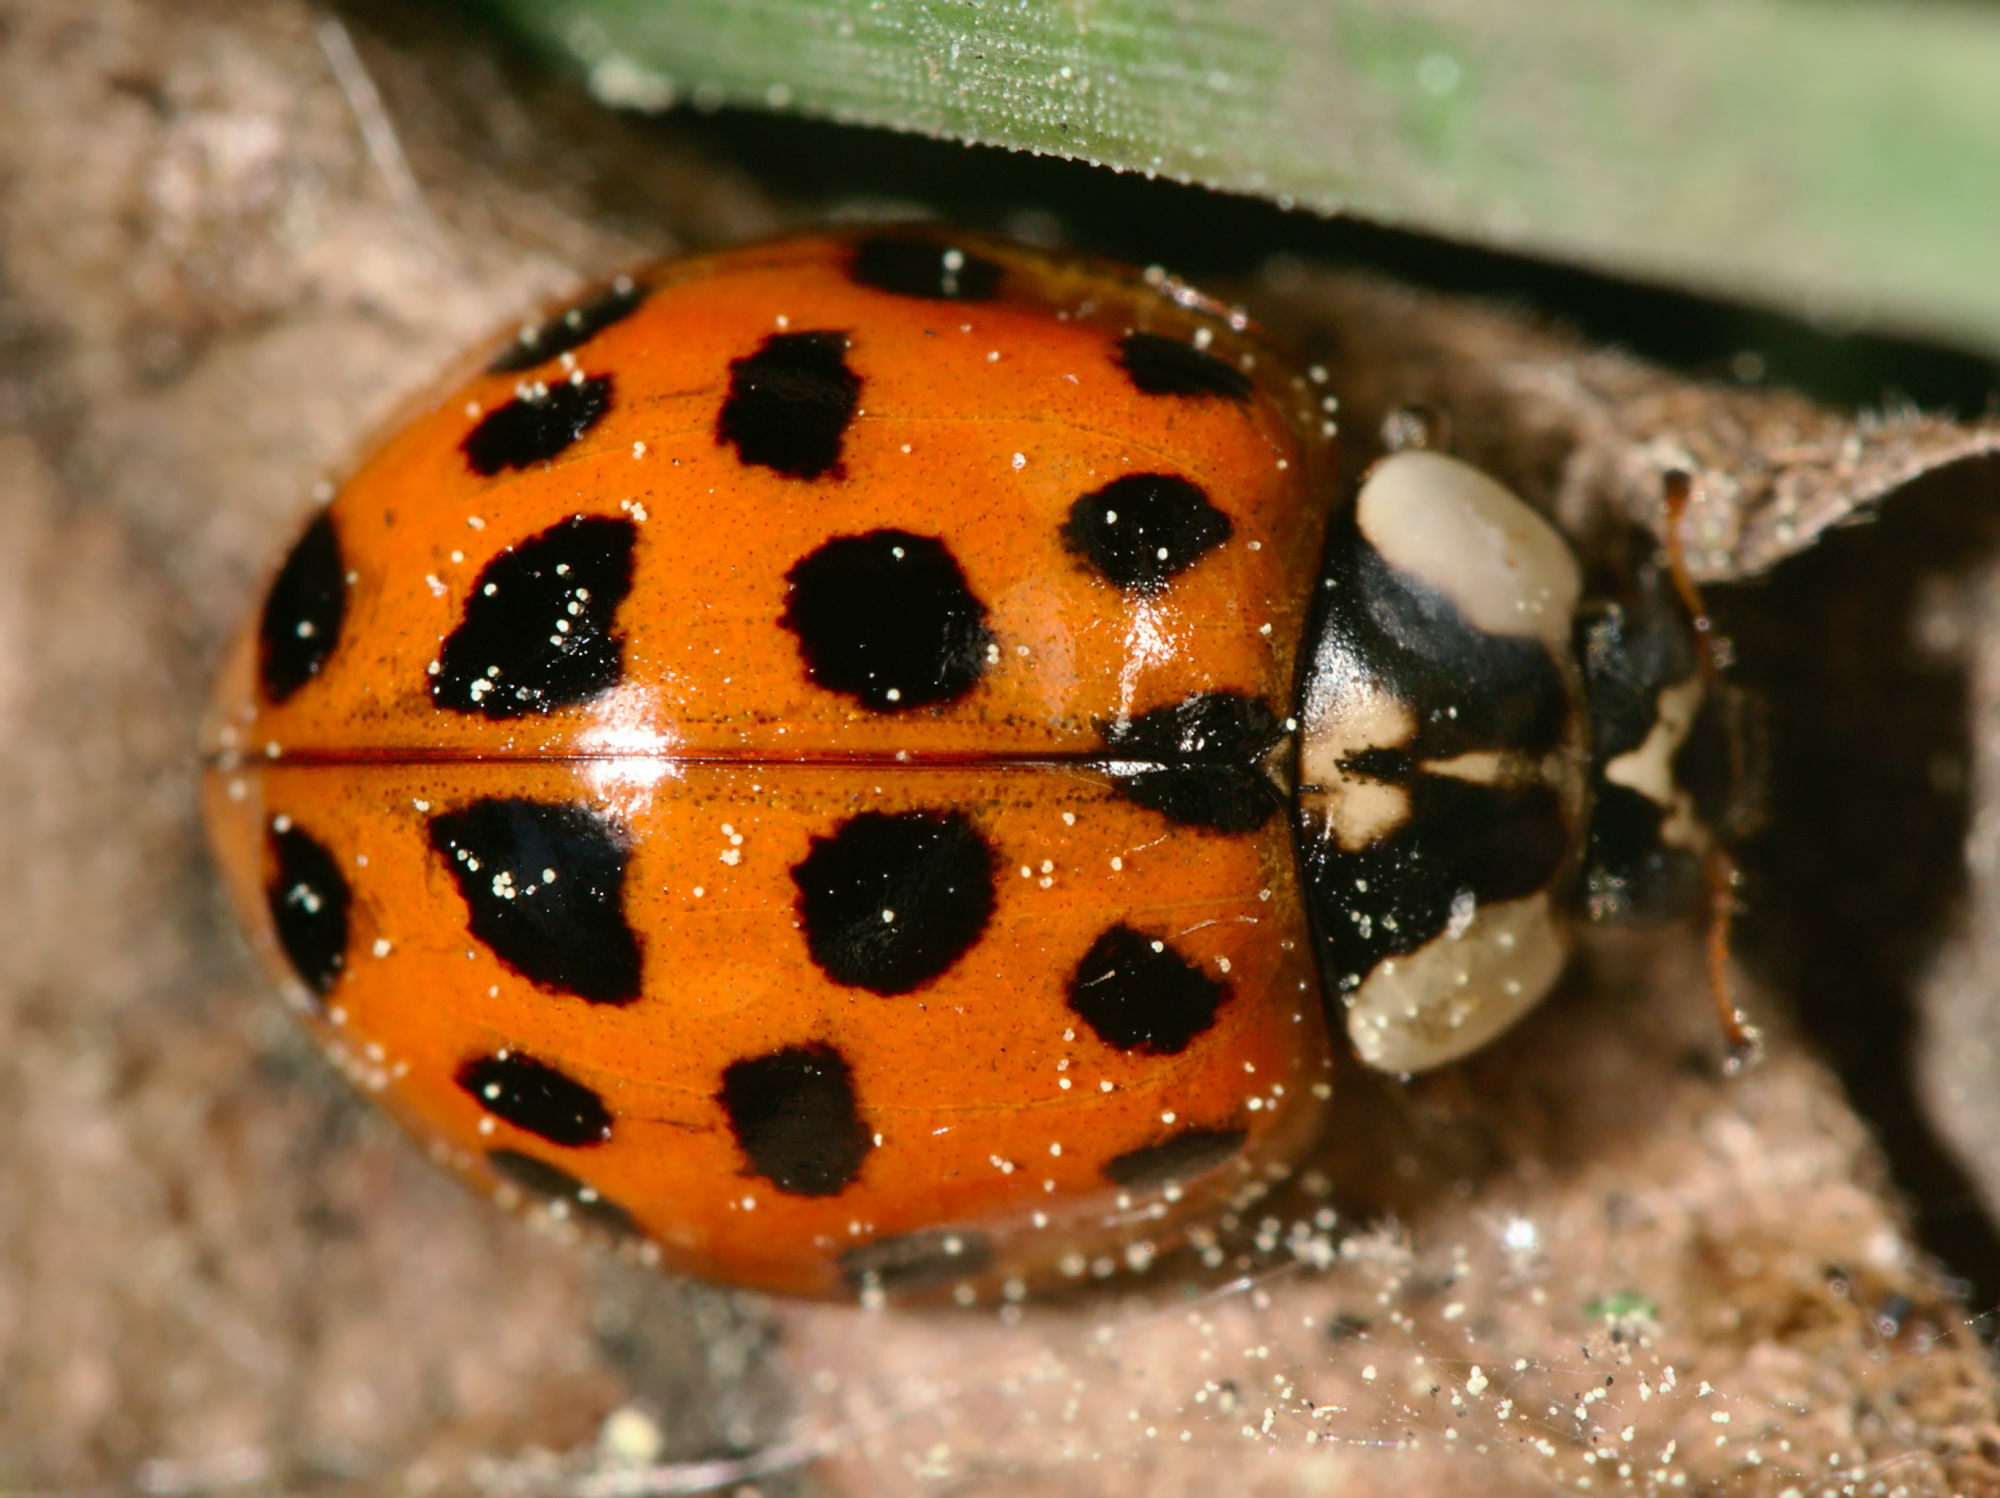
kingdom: Animalia
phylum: Arthropoda
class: Insecta
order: Coleoptera
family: Coccinellidae
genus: Harmonia
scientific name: Harmonia axyridis
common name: Harlequin ladybird
